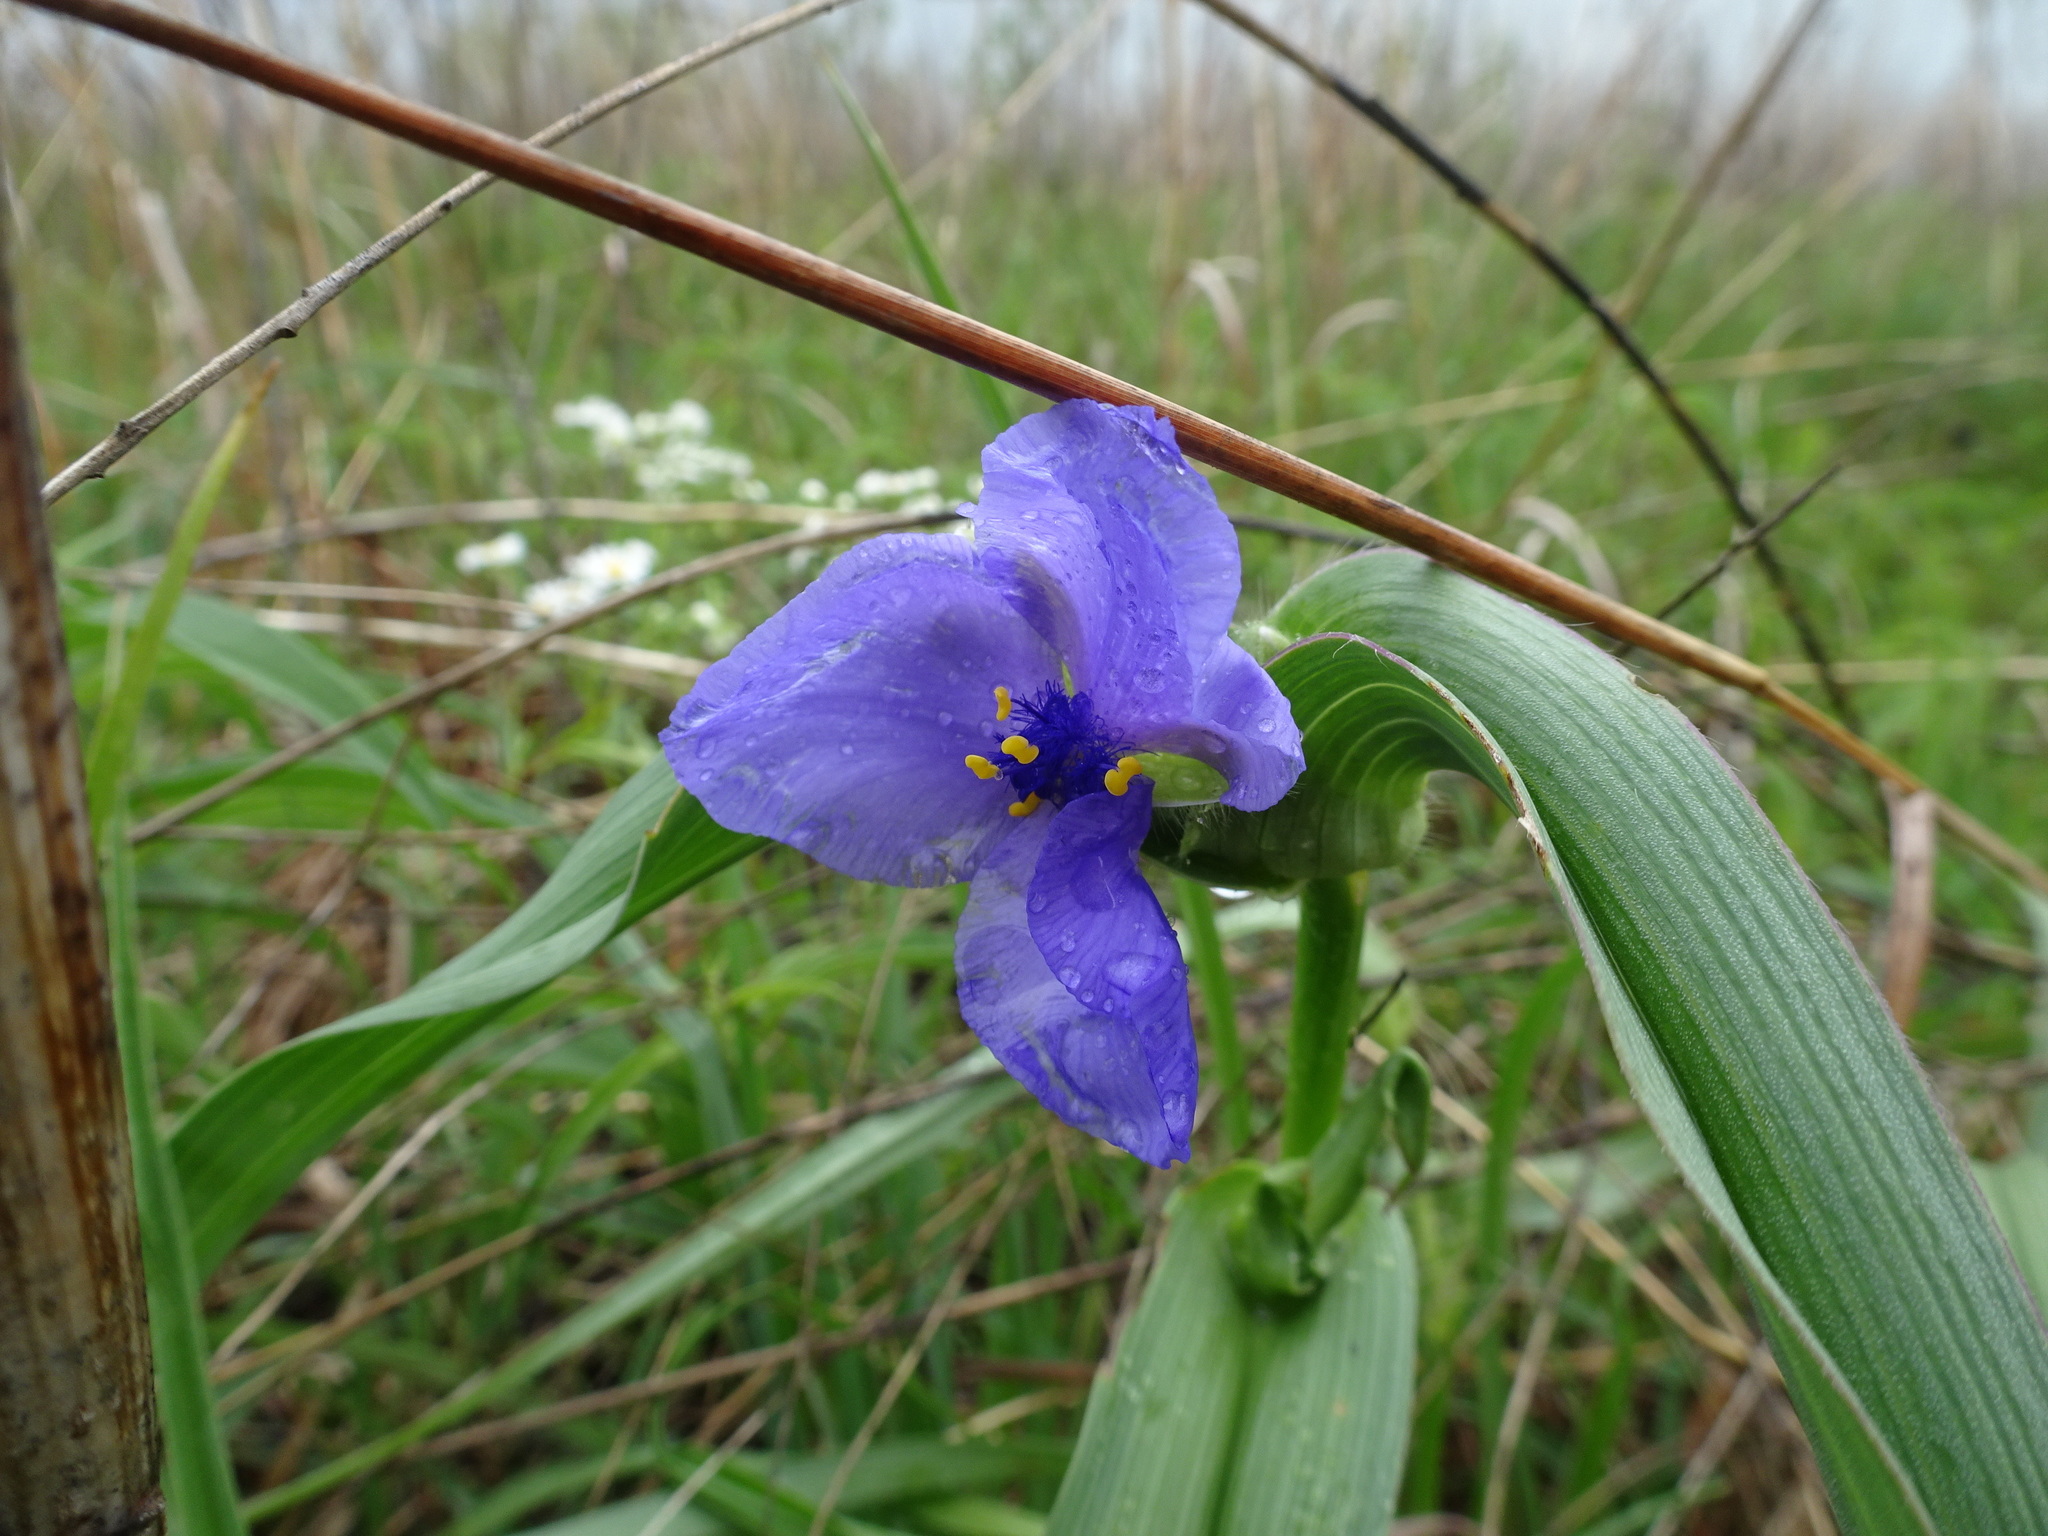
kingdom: Plantae
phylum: Tracheophyta
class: Liliopsida
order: Commelinales
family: Commelinaceae
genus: Tradescantia
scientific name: Tradescantia bracteata
